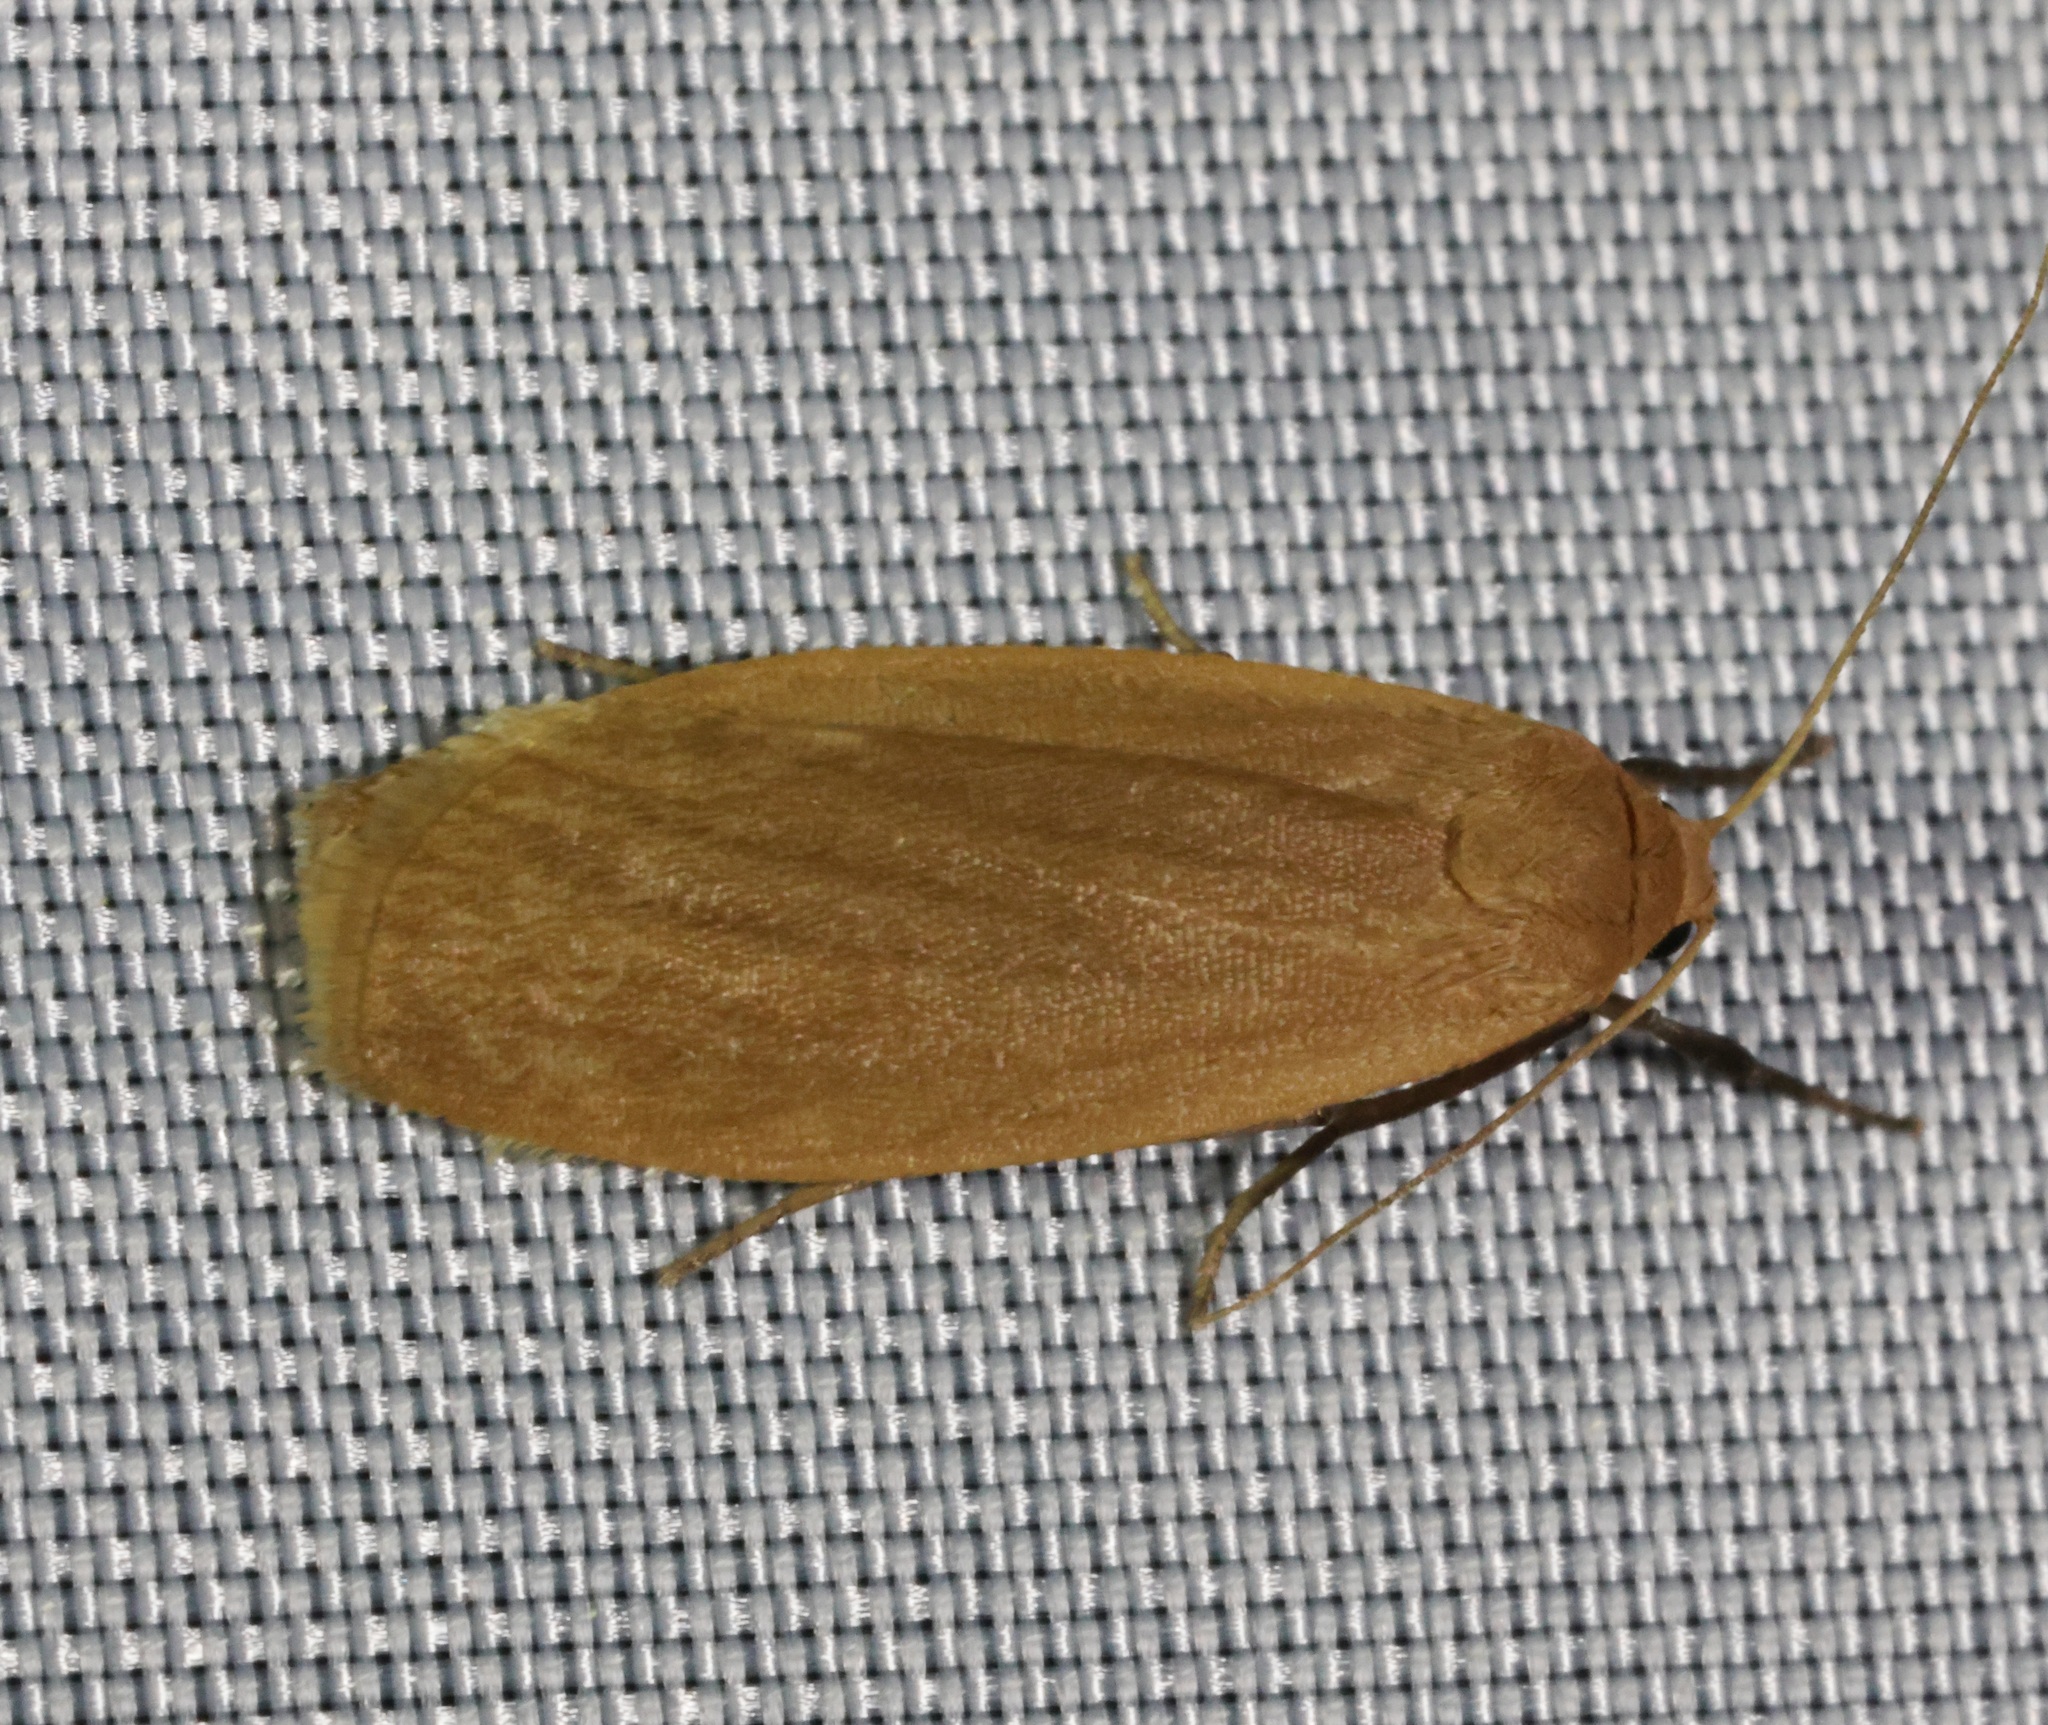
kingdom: Animalia
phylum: Arthropoda
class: Insecta
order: Lepidoptera
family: Erebidae
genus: Wittia
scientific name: Wittia klapperichi
